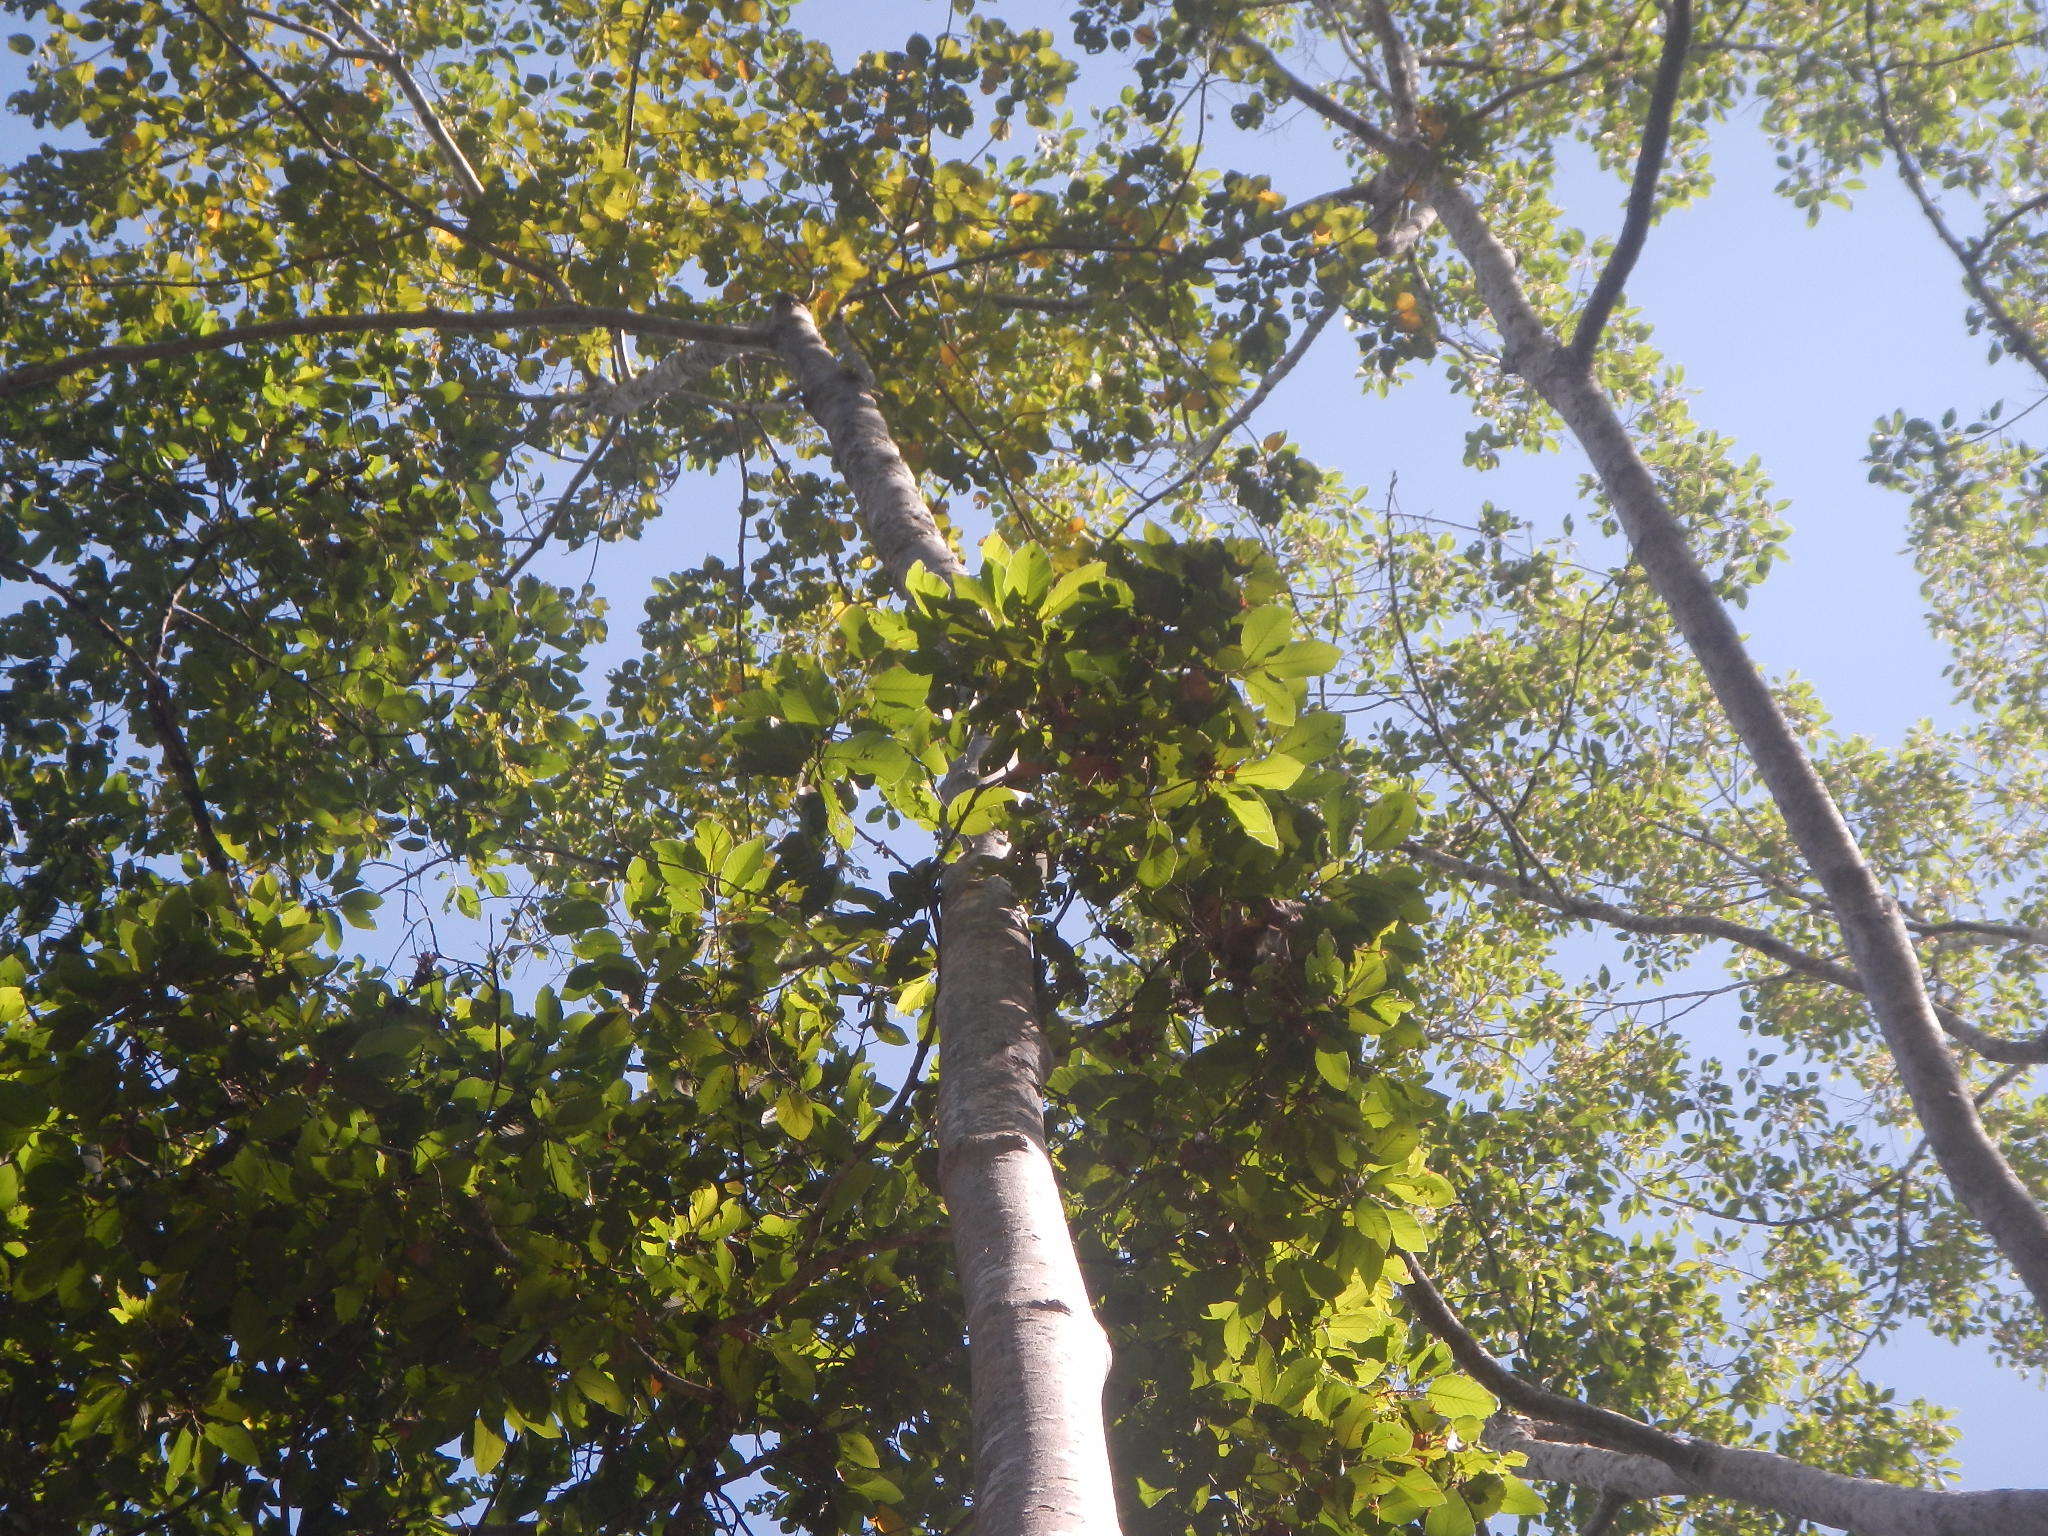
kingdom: Plantae
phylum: Tracheophyta
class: Magnoliopsida
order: Cucurbitales
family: Tetramelaceae
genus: Tetrameles
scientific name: Tetrameles nudiflora
